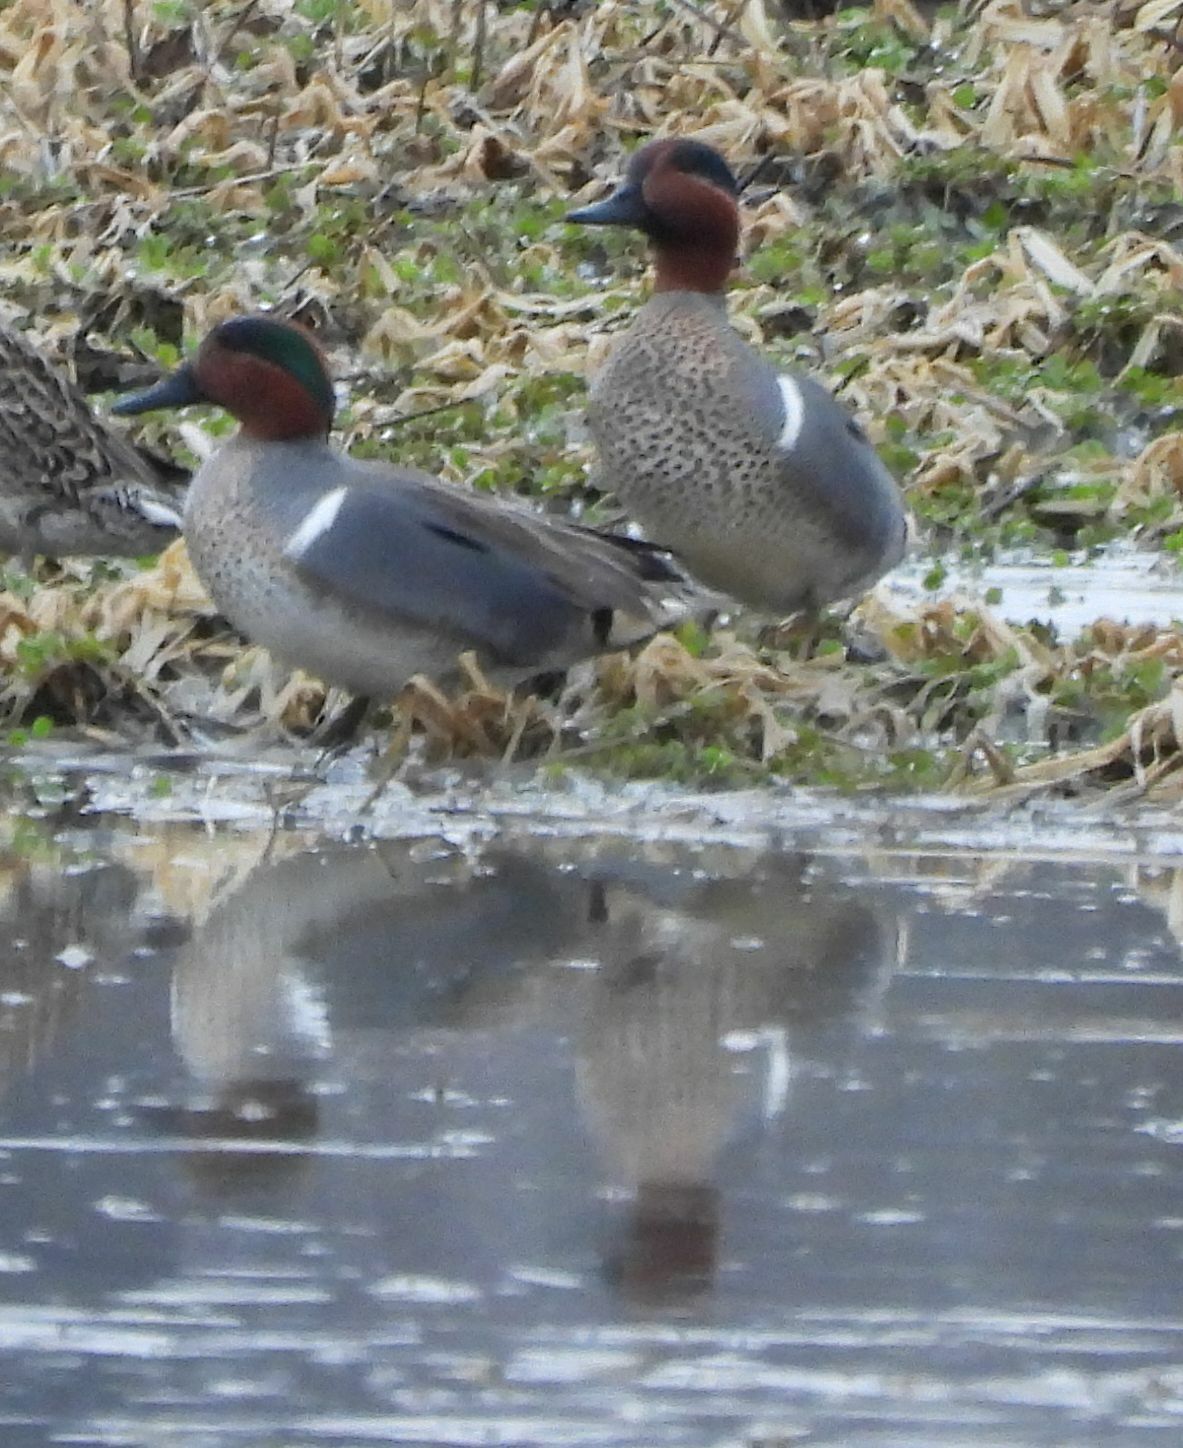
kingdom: Animalia
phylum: Chordata
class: Aves
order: Anseriformes
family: Anatidae
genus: Anas
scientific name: Anas crecca
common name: Eurasian teal
